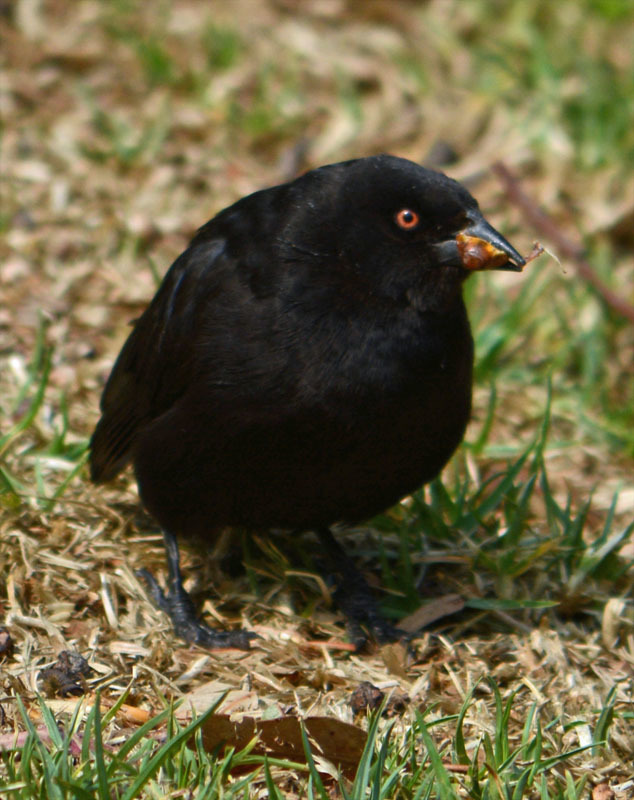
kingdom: Animalia
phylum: Chordata
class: Aves
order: Passeriformes
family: Icteridae
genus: Molothrus
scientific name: Molothrus aeneus
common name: Bronzed cowbird
